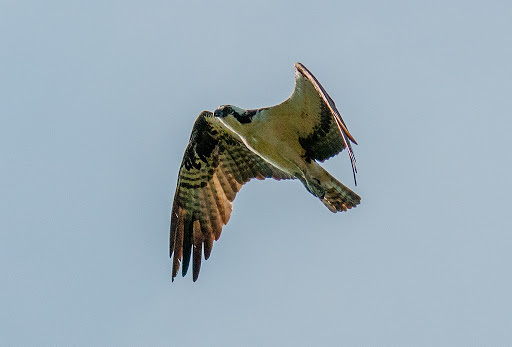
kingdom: Animalia
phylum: Chordata
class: Aves
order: Accipitriformes
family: Pandionidae
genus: Pandion
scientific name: Pandion haliaetus
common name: Osprey
